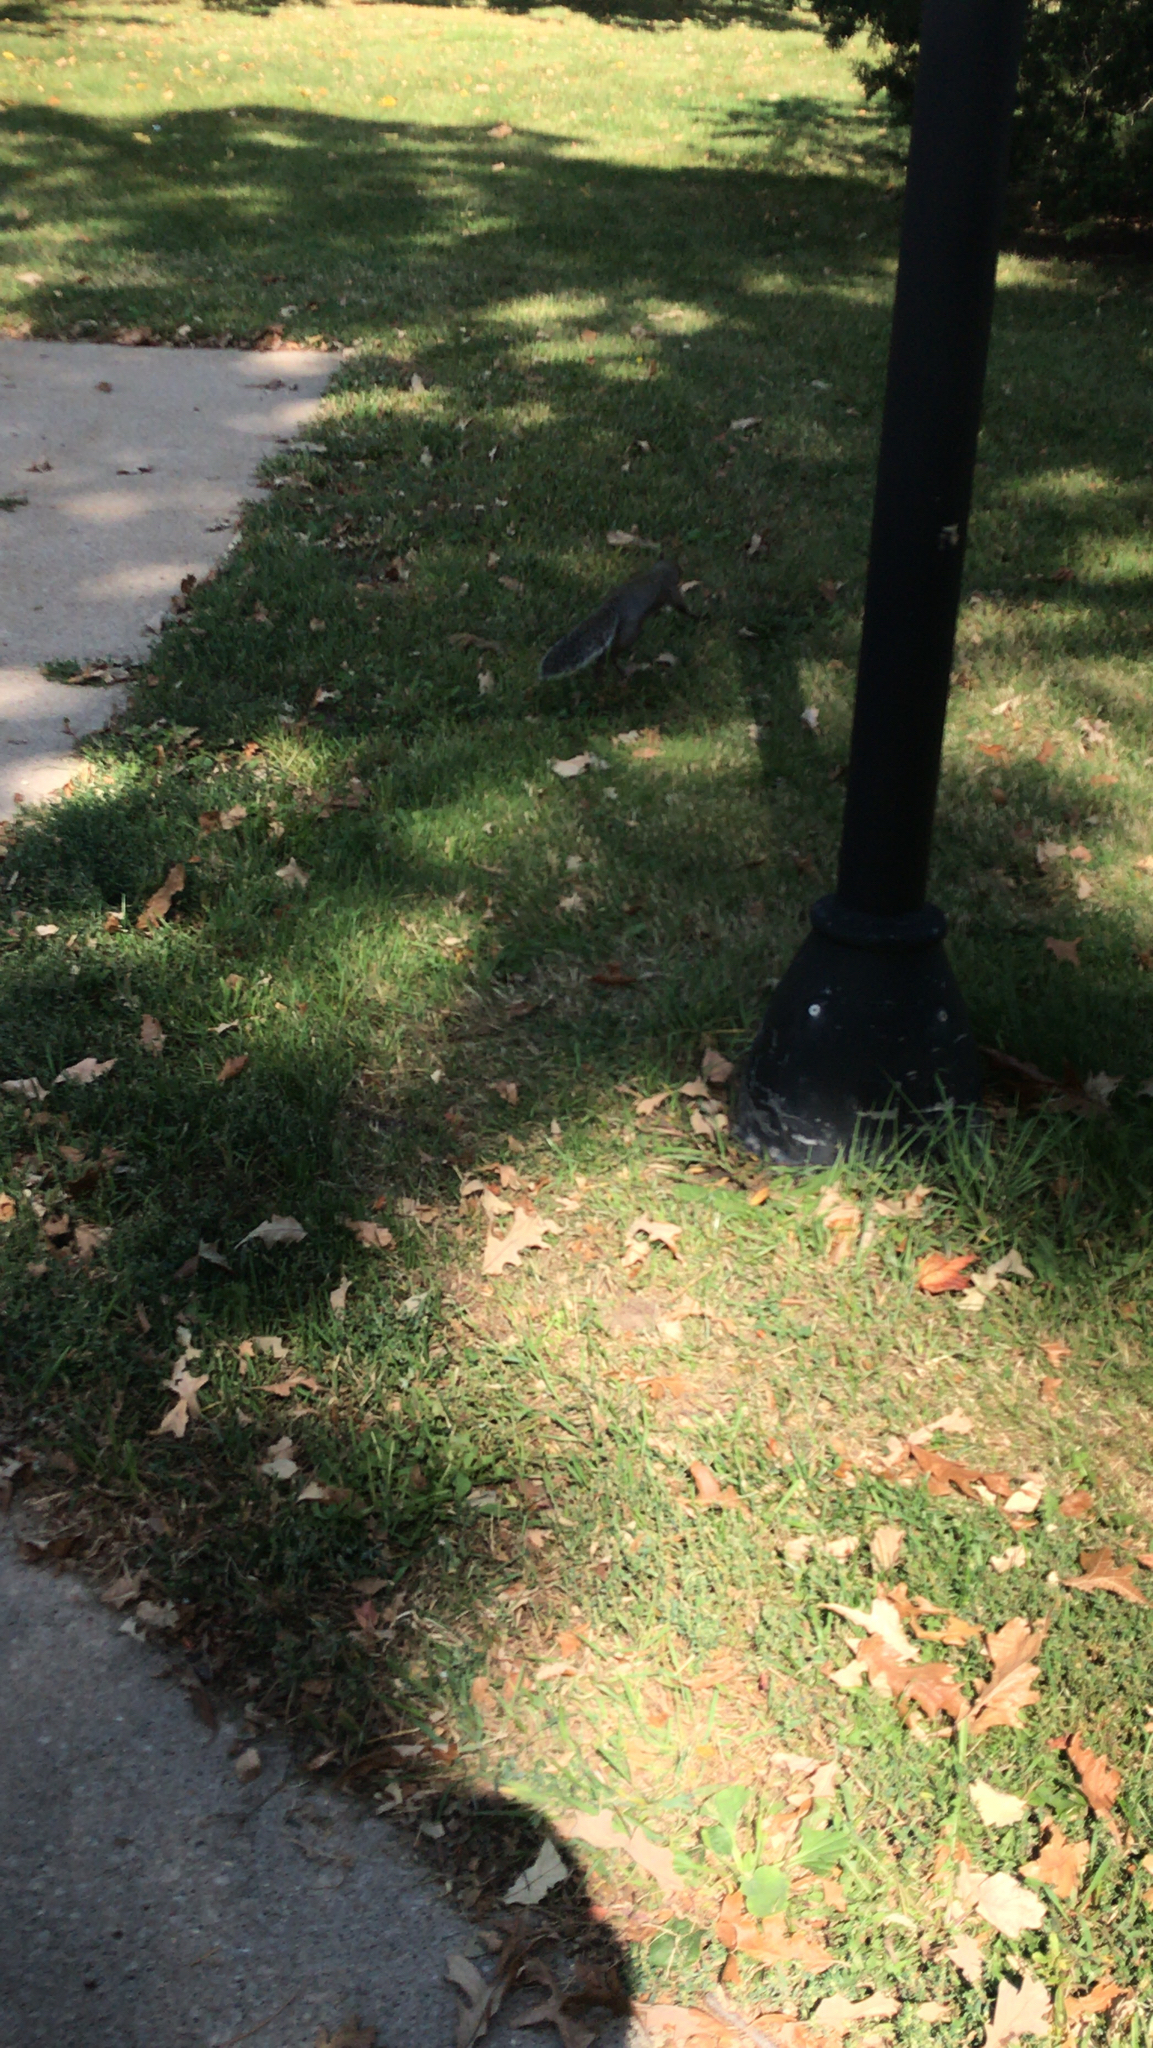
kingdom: Animalia
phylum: Chordata
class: Mammalia
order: Rodentia
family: Sciuridae
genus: Sciurus
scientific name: Sciurus carolinensis
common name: Eastern gray squirrel
